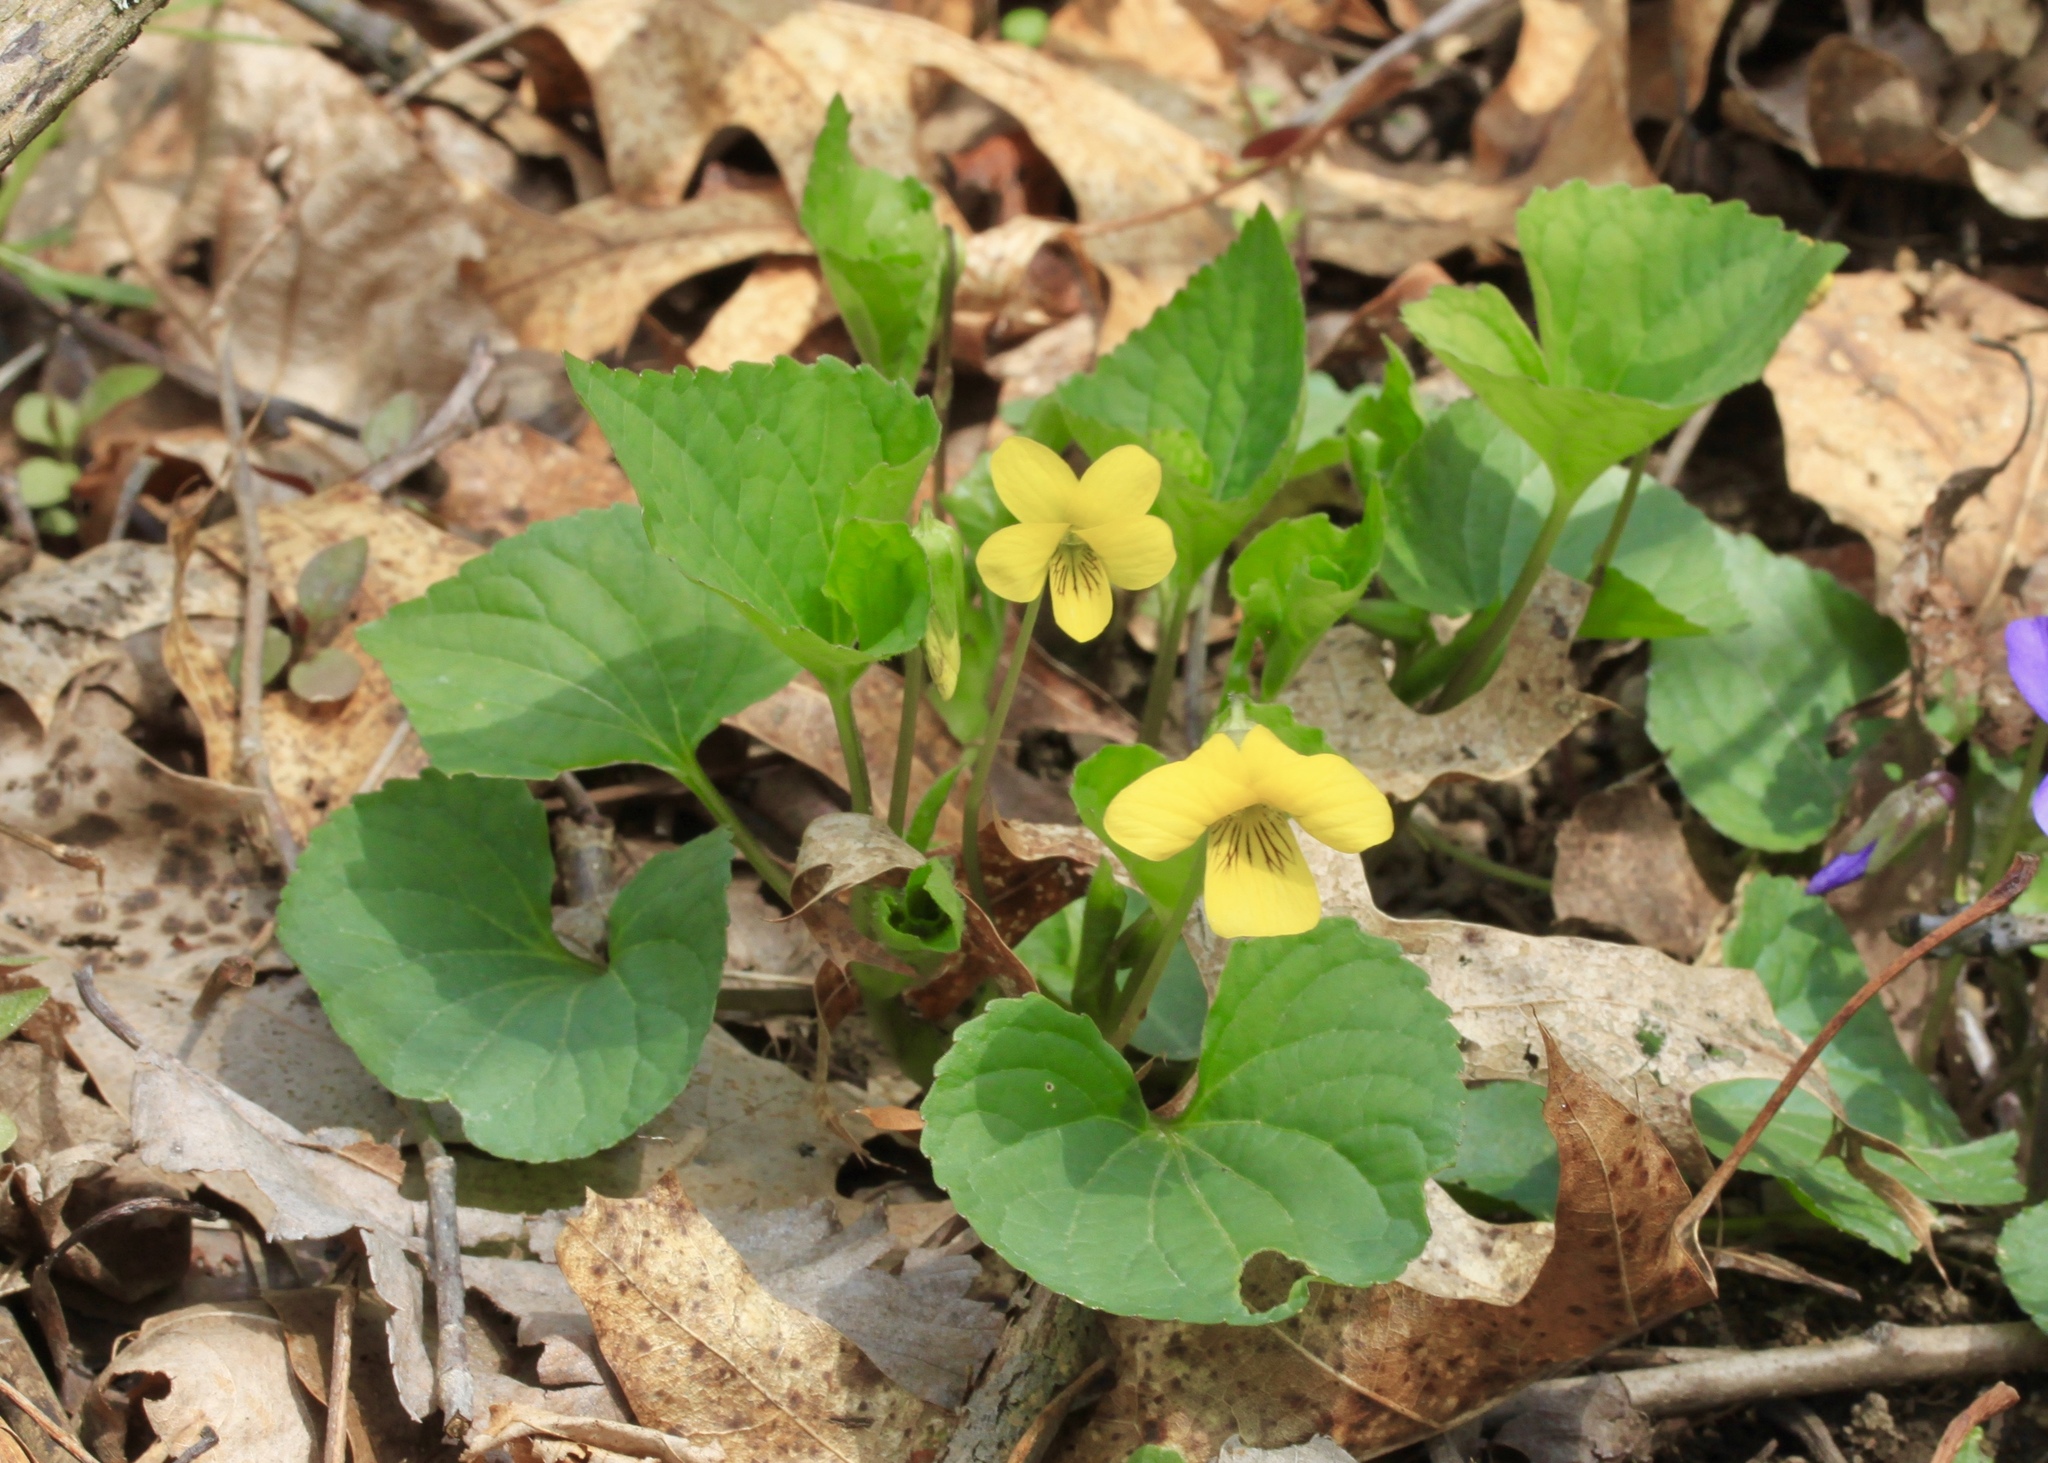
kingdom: Plantae
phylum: Tracheophyta
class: Magnoliopsida
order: Malpighiales
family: Violaceae
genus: Viola
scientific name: Viola eriocarpa
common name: Smooth yellow violet
